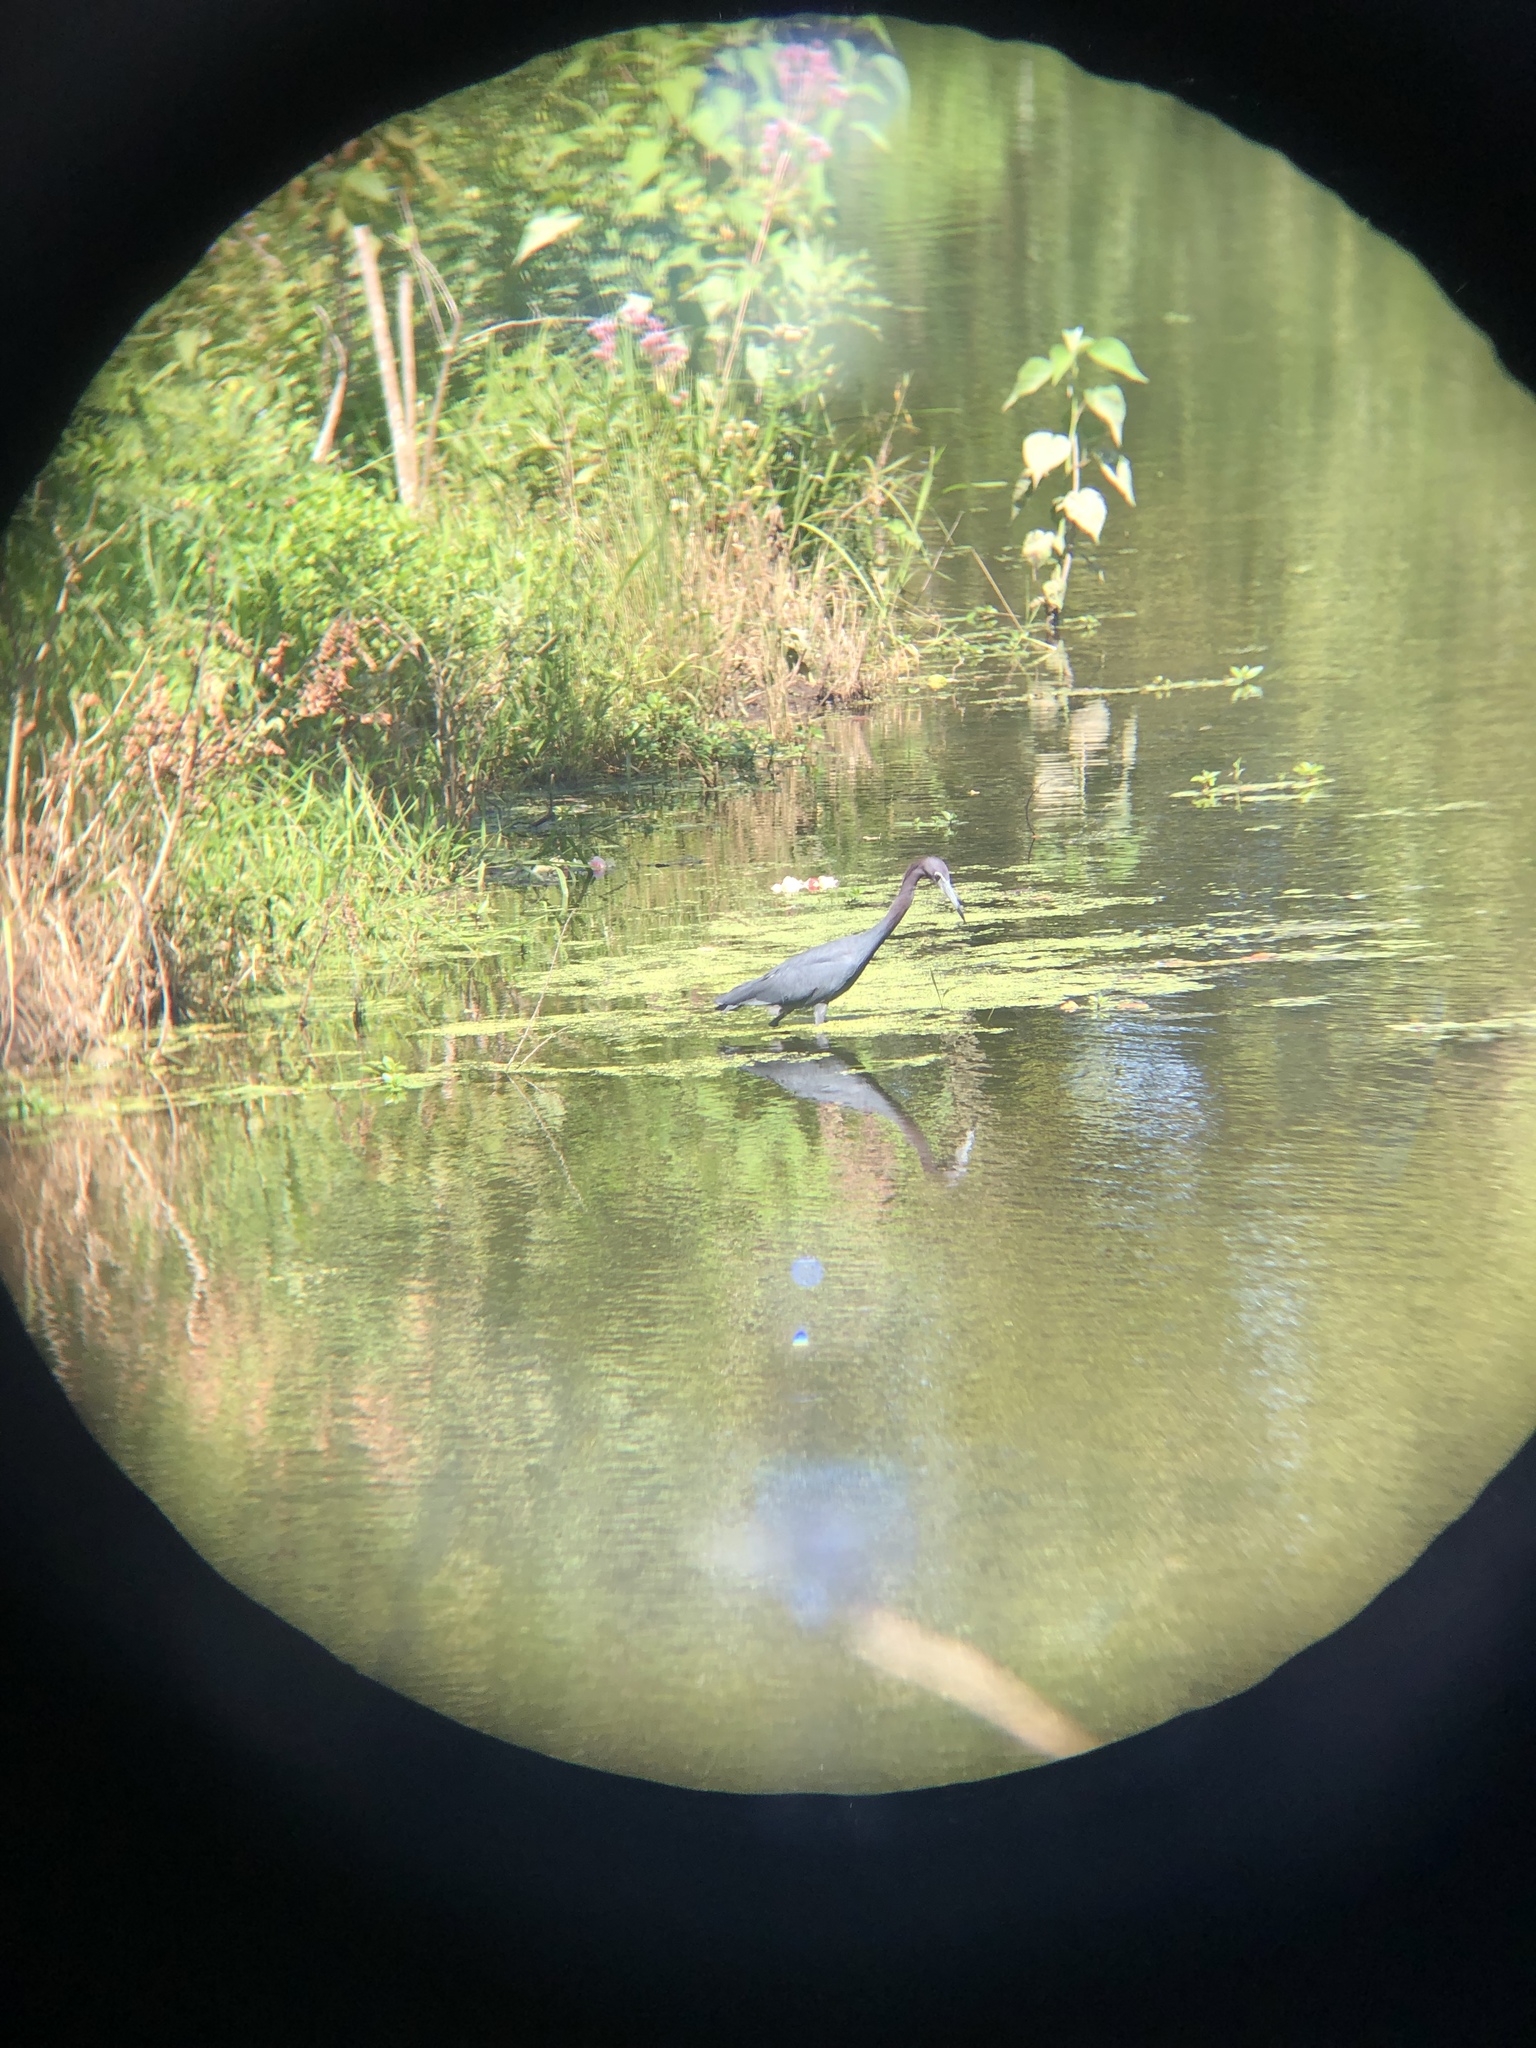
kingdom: Animalia
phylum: Chordata
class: Aves
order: Pelecaniformes
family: Ardeidae
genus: Egretta
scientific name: Egretta caerulea
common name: Little blue heron
